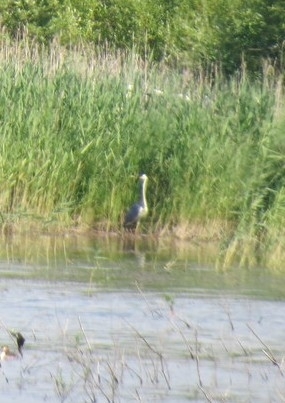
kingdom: Animalia
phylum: Chordata
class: Aves
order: Pelecaniformes
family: Ardeidae
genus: Ardea
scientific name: Ardea cinerea
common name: Grey heron
